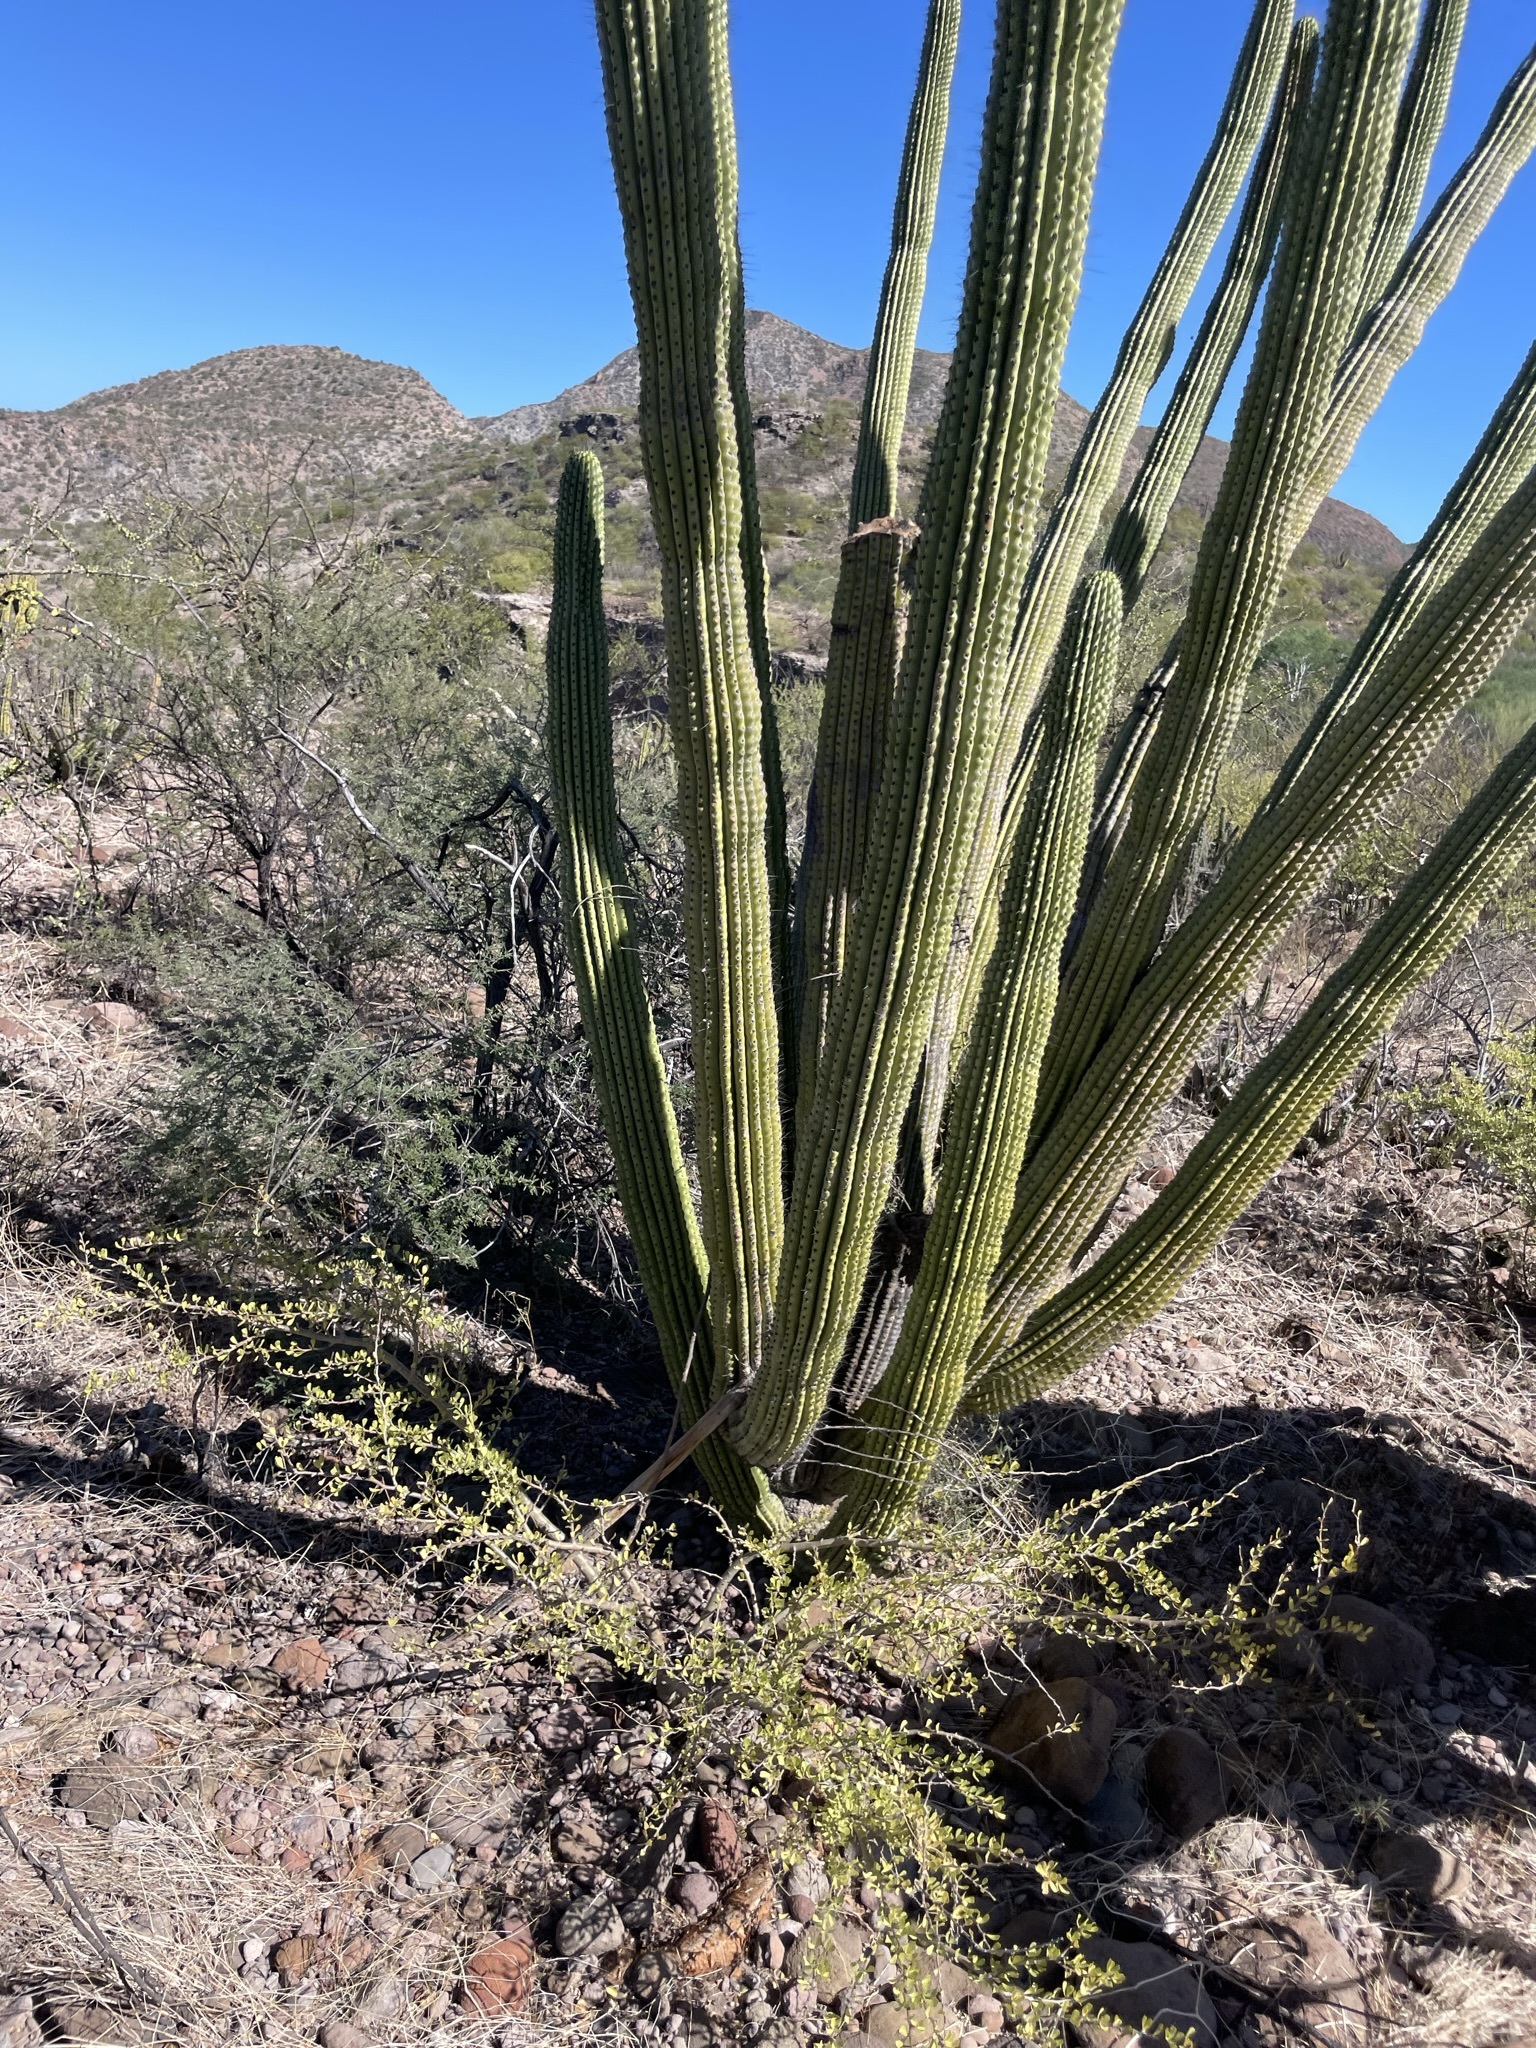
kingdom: Plantae
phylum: Tracheophyta
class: Magnoliopsida
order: Caryophyllales
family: Cactaceae
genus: Stenocereus
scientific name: Stenocereus thurberi
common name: Organ pipe cactus
